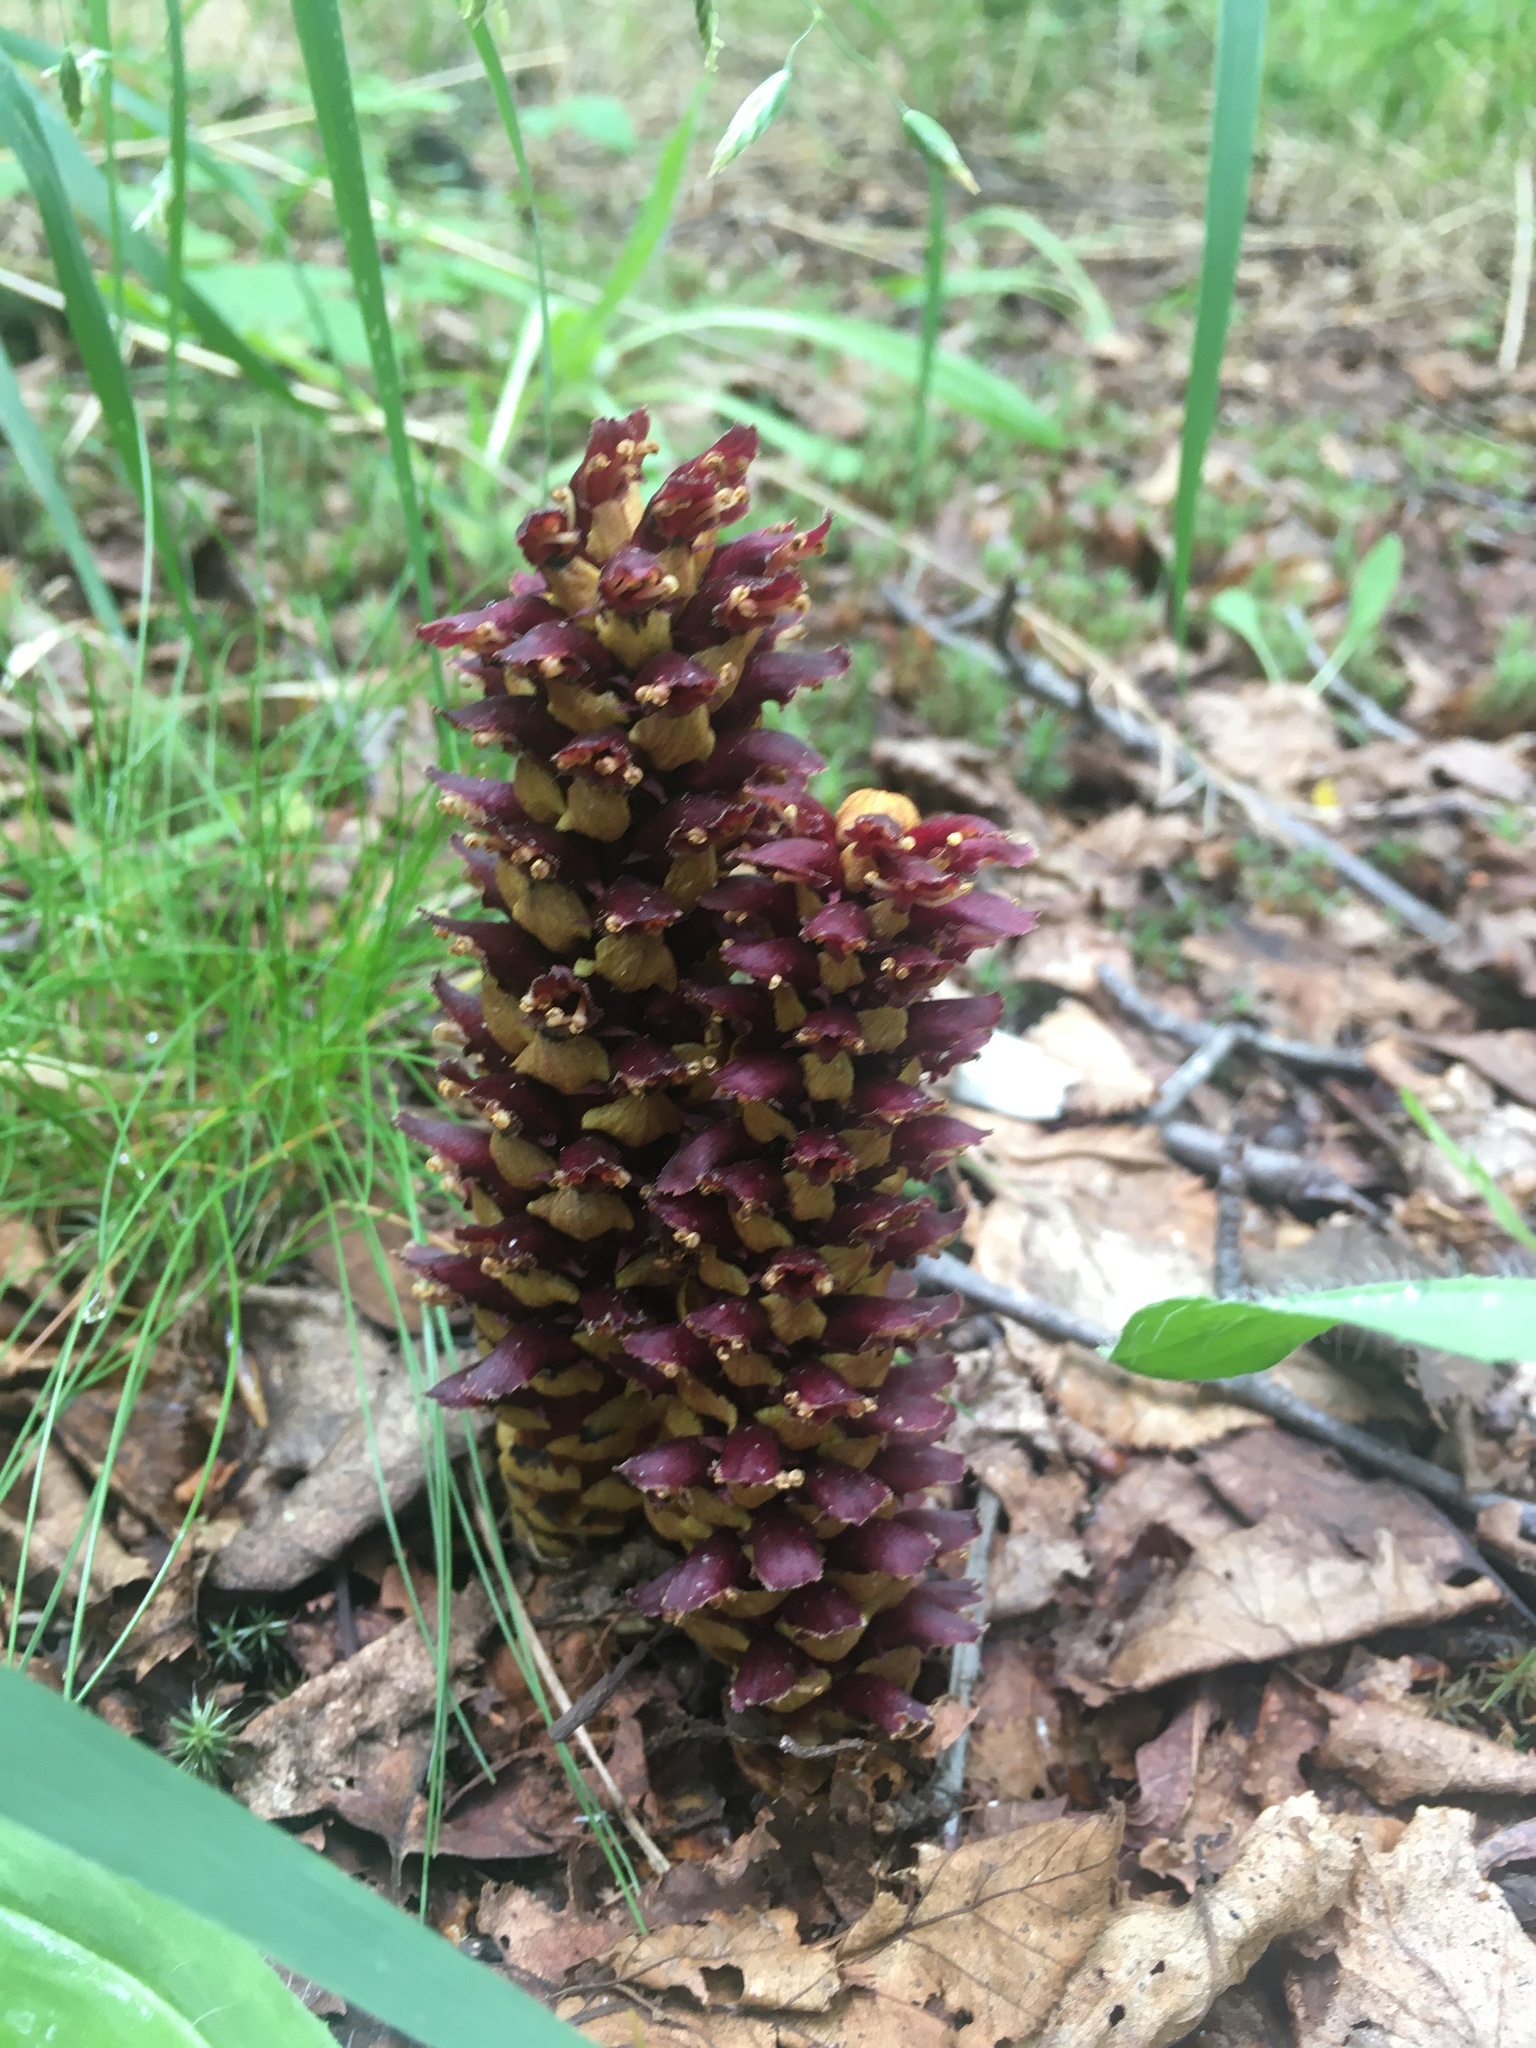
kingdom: Plantae
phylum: Tracheophyta
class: Magnoliopsida
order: Lamiales
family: Orobanchaceae
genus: Boschniakia
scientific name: Boschniakia rossica
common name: Poque
